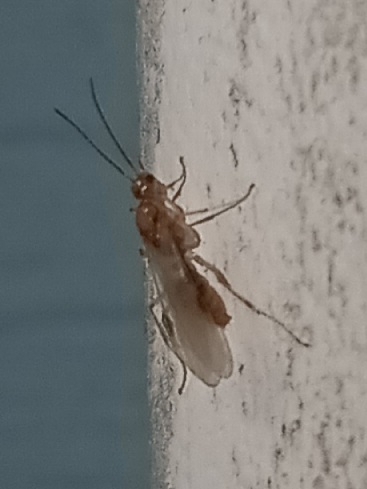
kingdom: Animalia
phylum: Arthropoda
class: Insecta
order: Hymenoptera
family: Formicidae
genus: Pachycondyla
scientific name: Pachycondyla chinensis
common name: Asian needle ant
